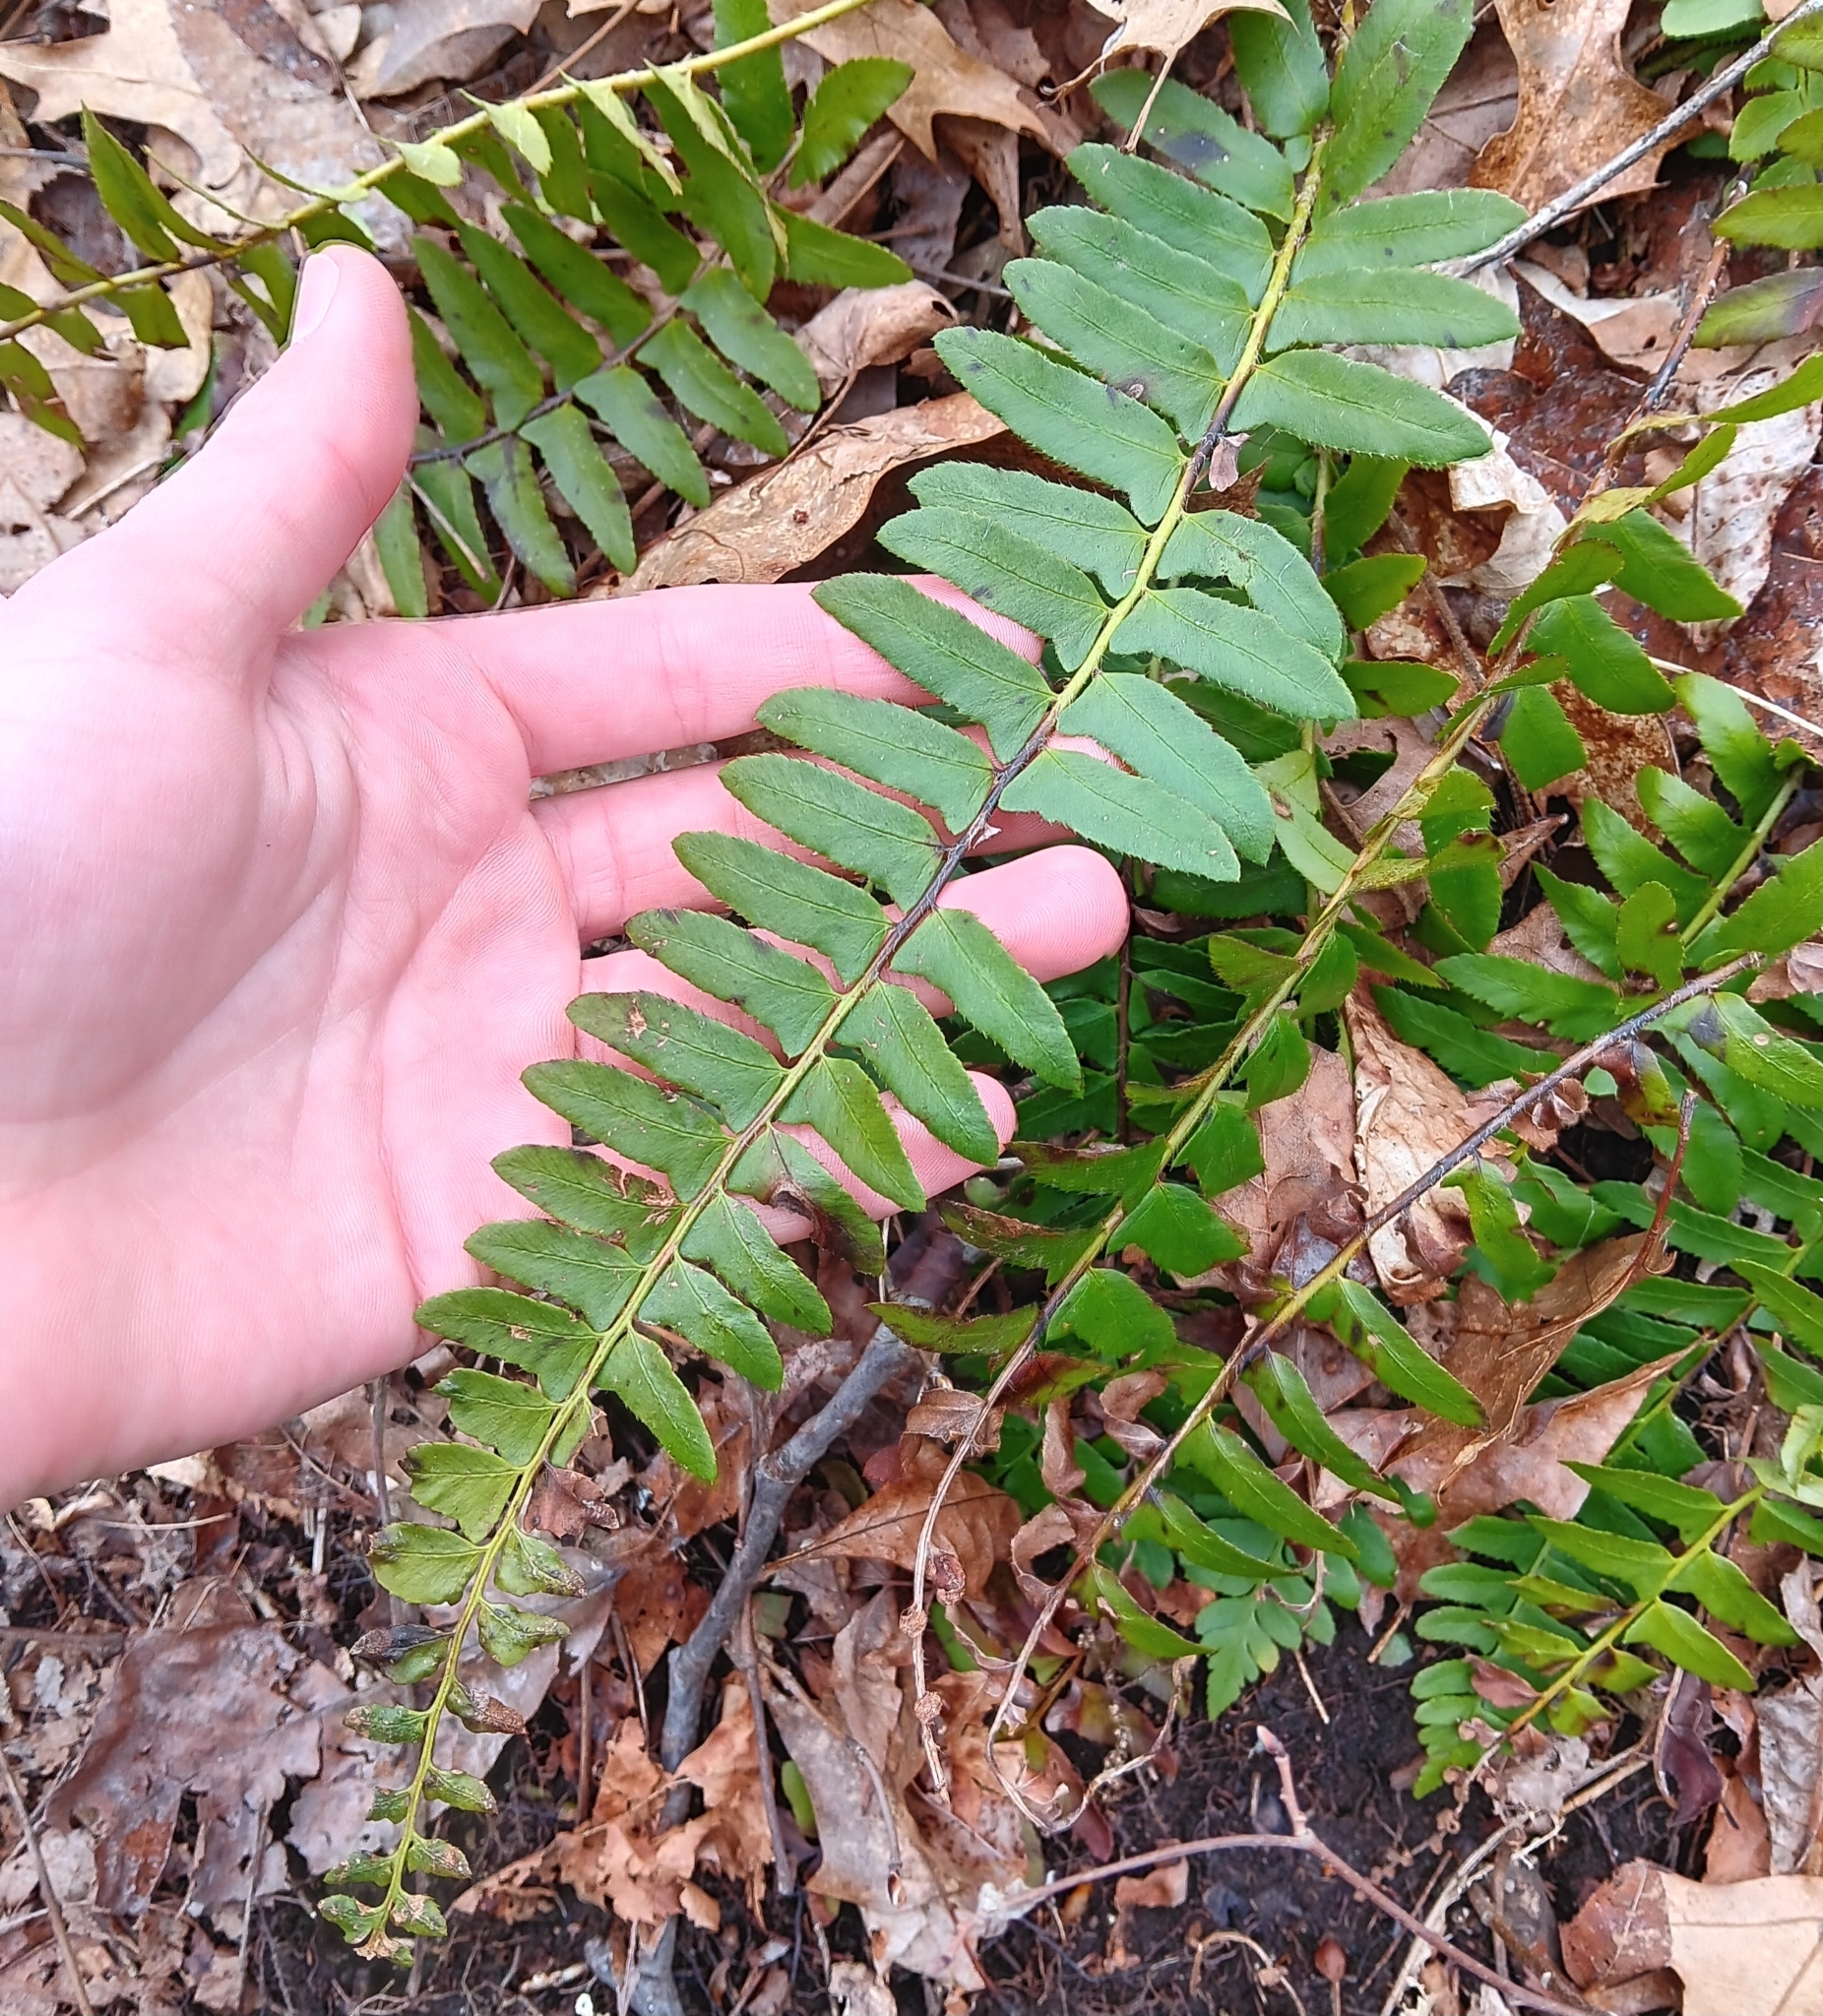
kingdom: Plantae
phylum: Tracheophyta
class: Polypodiopsida
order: Polypodiales
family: Dryopteridaceae
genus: Polystichum
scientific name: Polystichum acrostichoides
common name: Christmas fern
